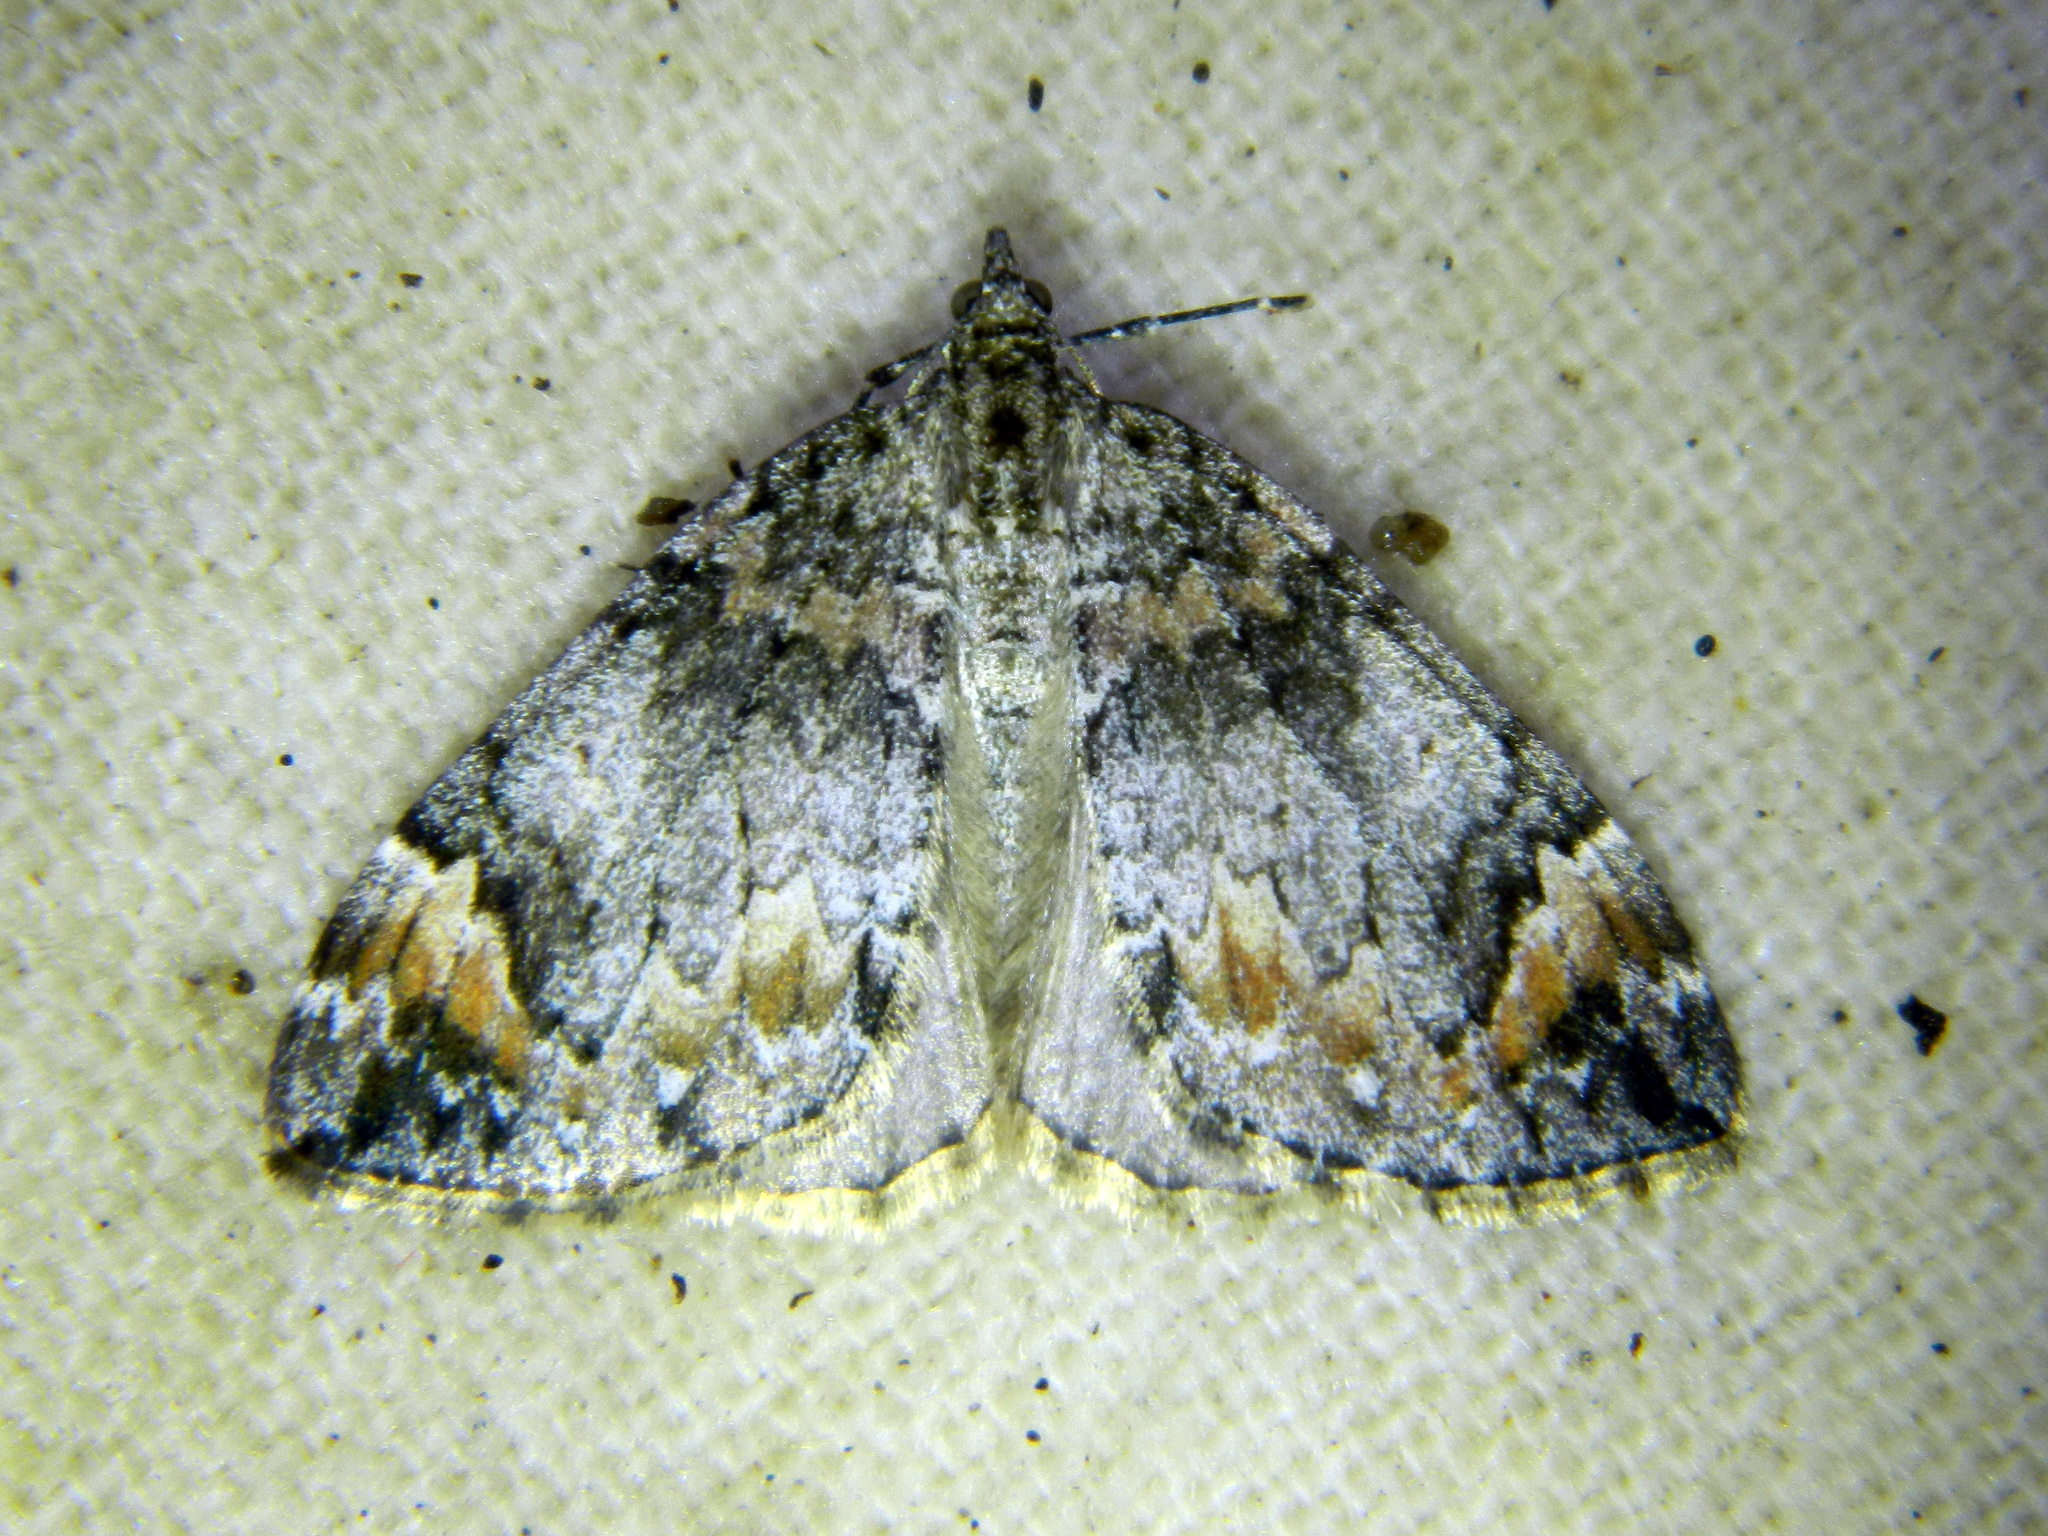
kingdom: Animalia
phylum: Arthropoda
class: Insecta
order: Lepidoptera
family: Geometridae
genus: Dysstroma
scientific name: Dysstroma citrata
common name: Dark marbled carpet
